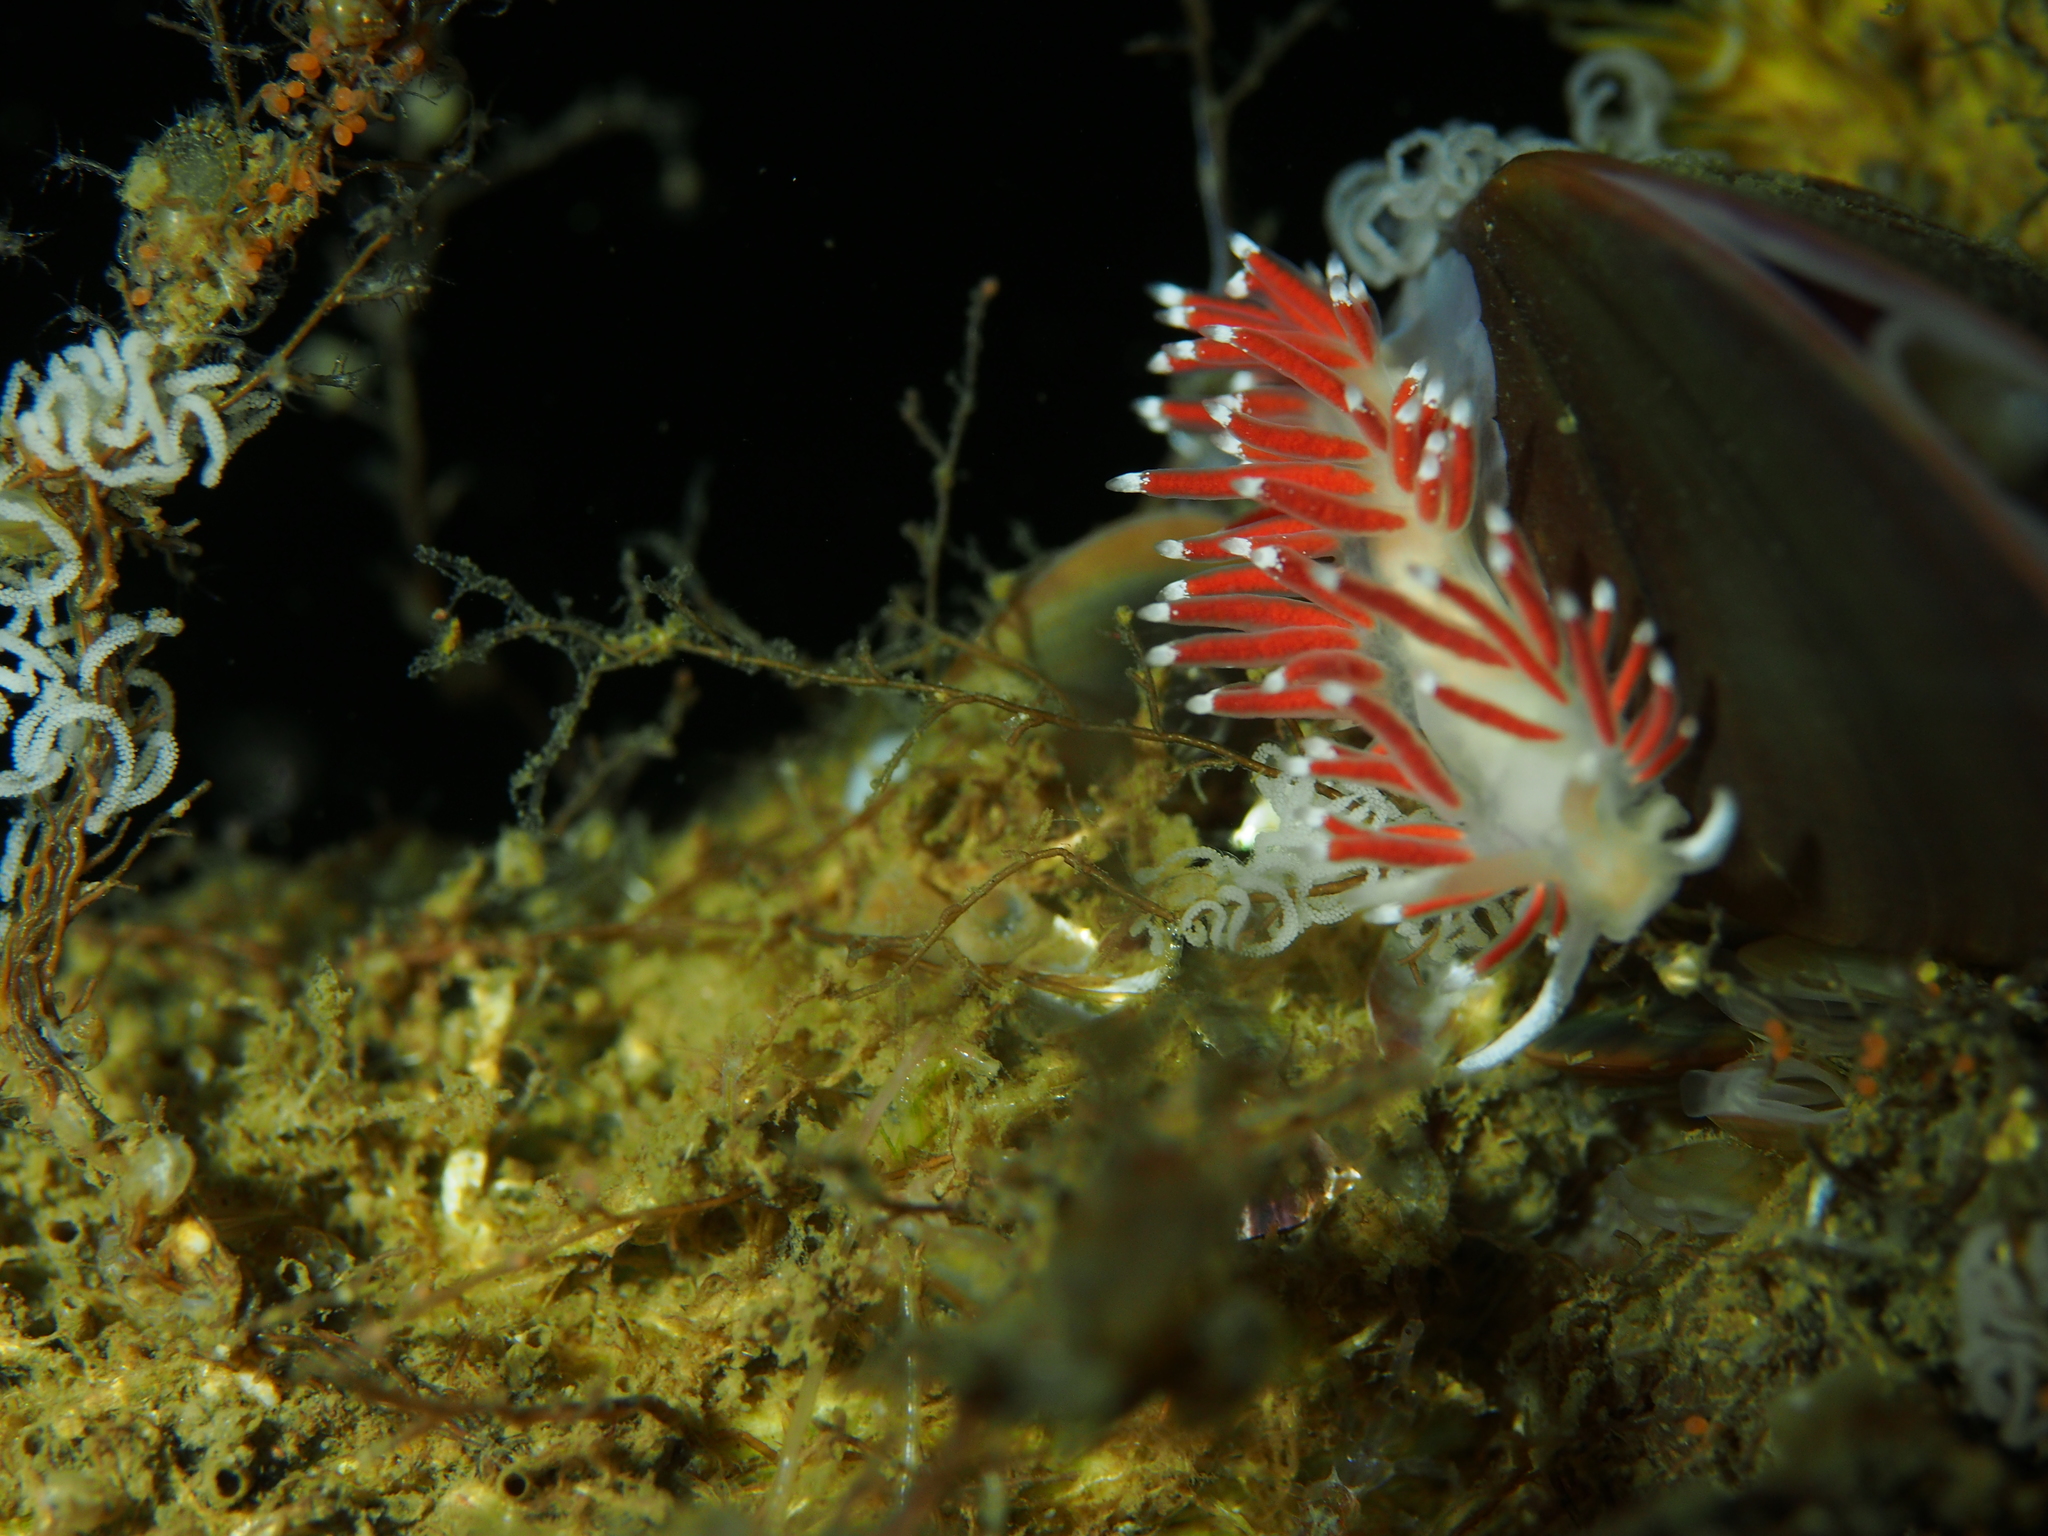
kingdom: Animalia
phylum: Mollusca
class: Gastropoda
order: Nudibranchia
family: Coryphellidae
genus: Coryphella
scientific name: Coryphella gracilis
